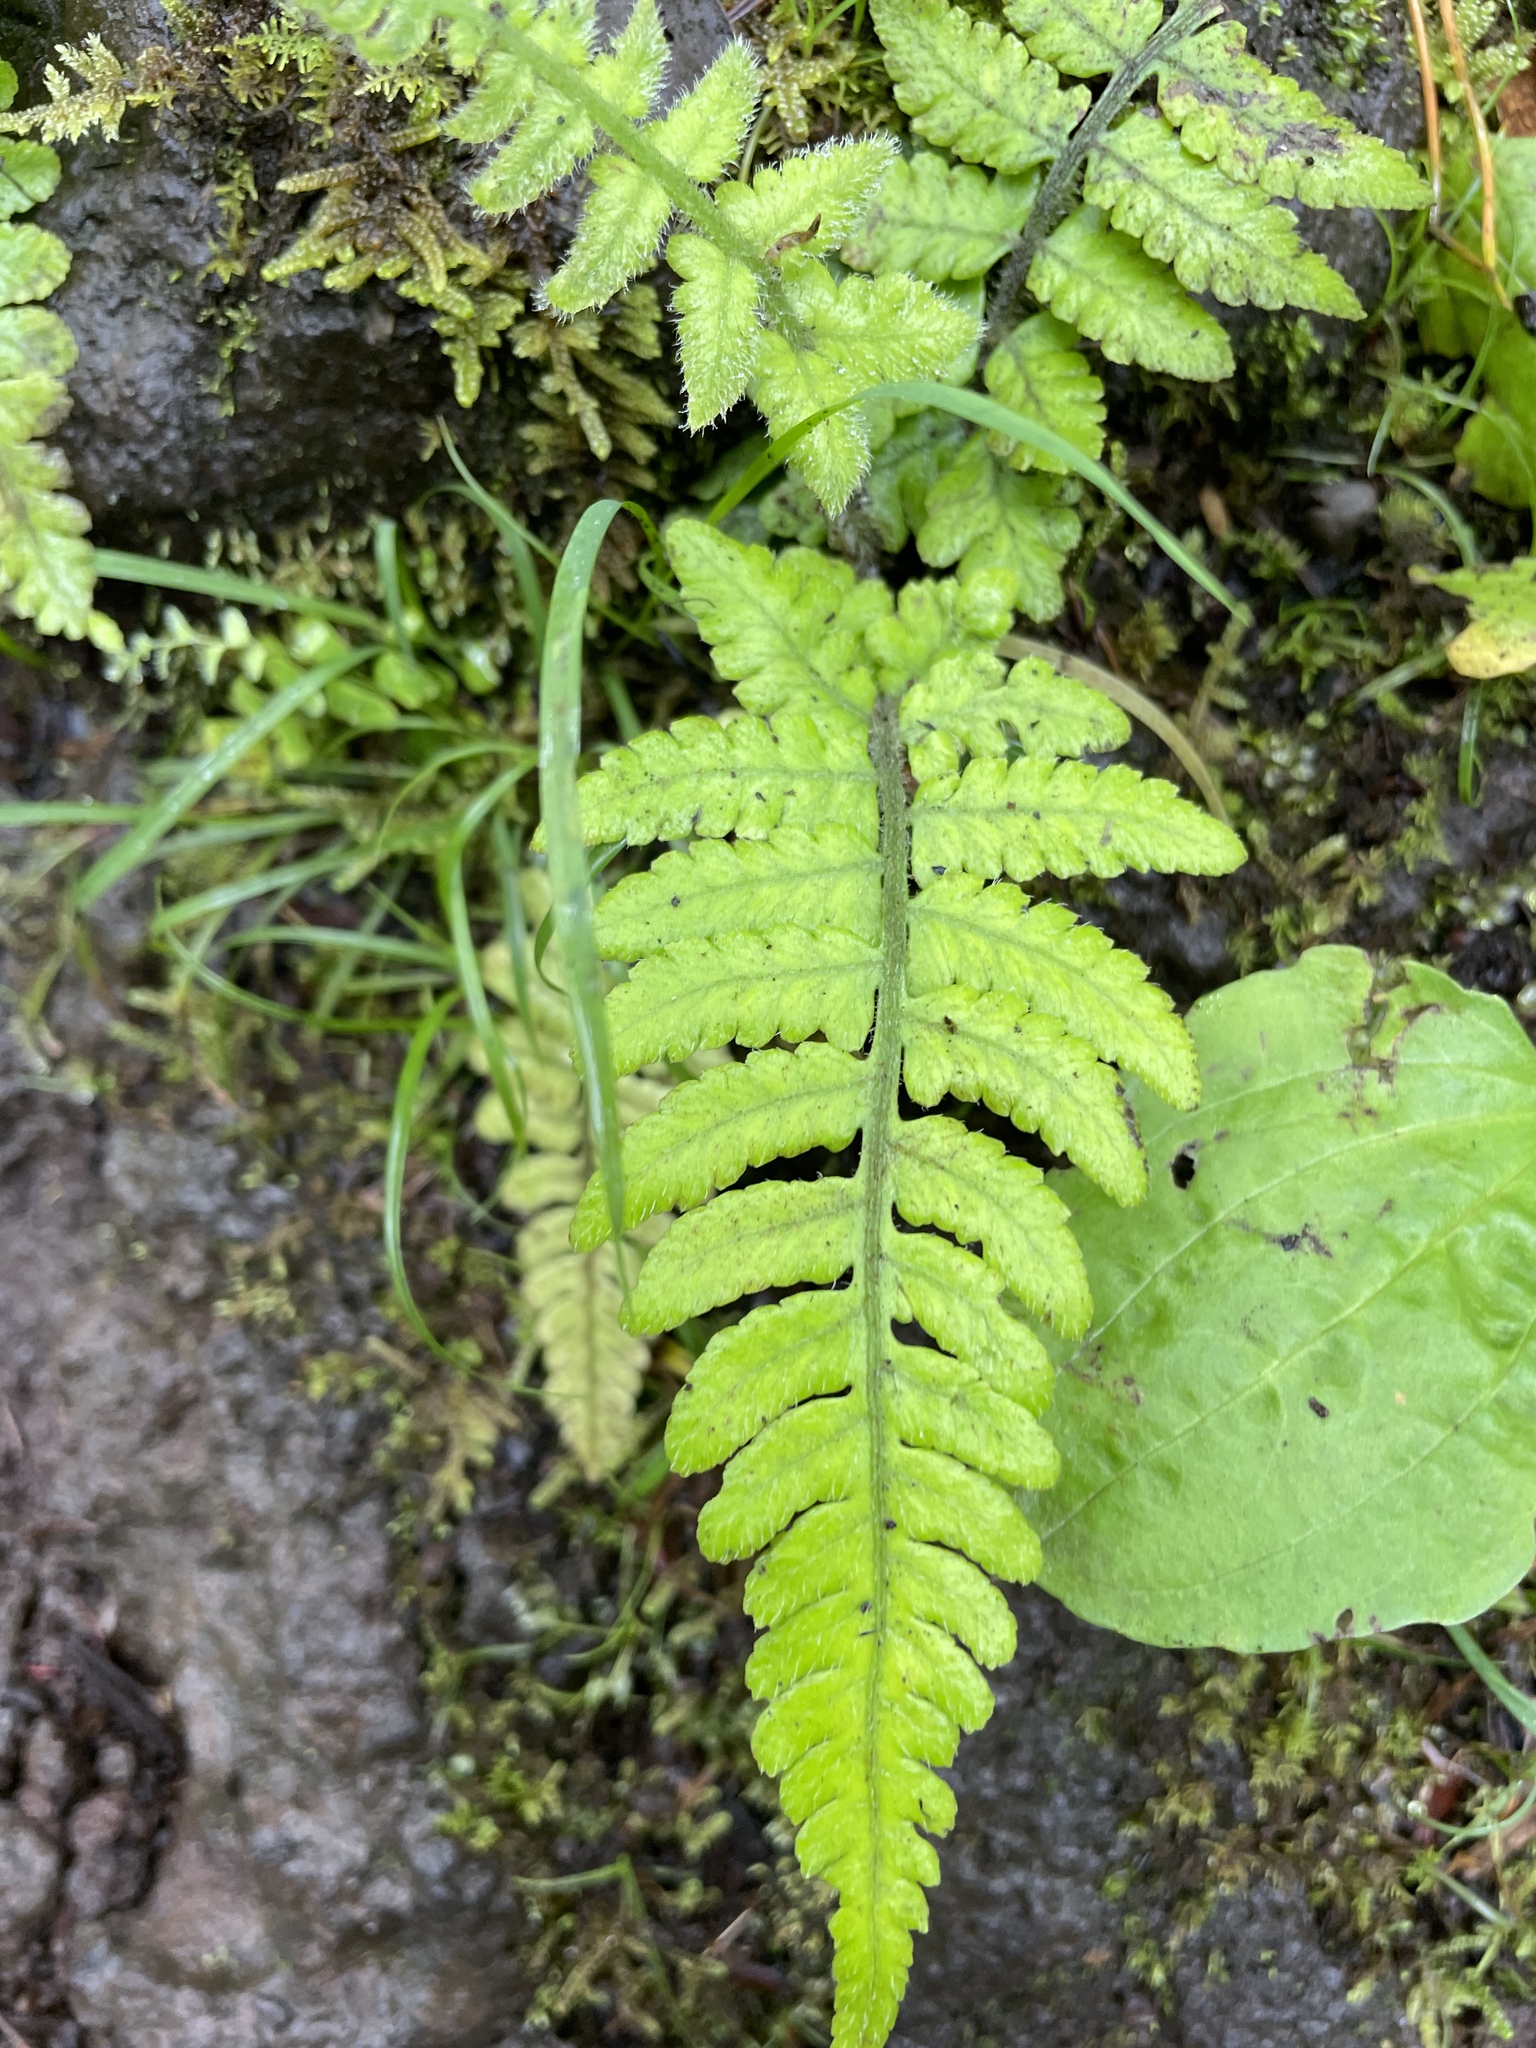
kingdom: Plantae
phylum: Tracheophyta
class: Polypodiopsida
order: Polypodiales
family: Athyriaceae
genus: Deparia
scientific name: Deparia petersenii
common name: Japanese false spleenwort
